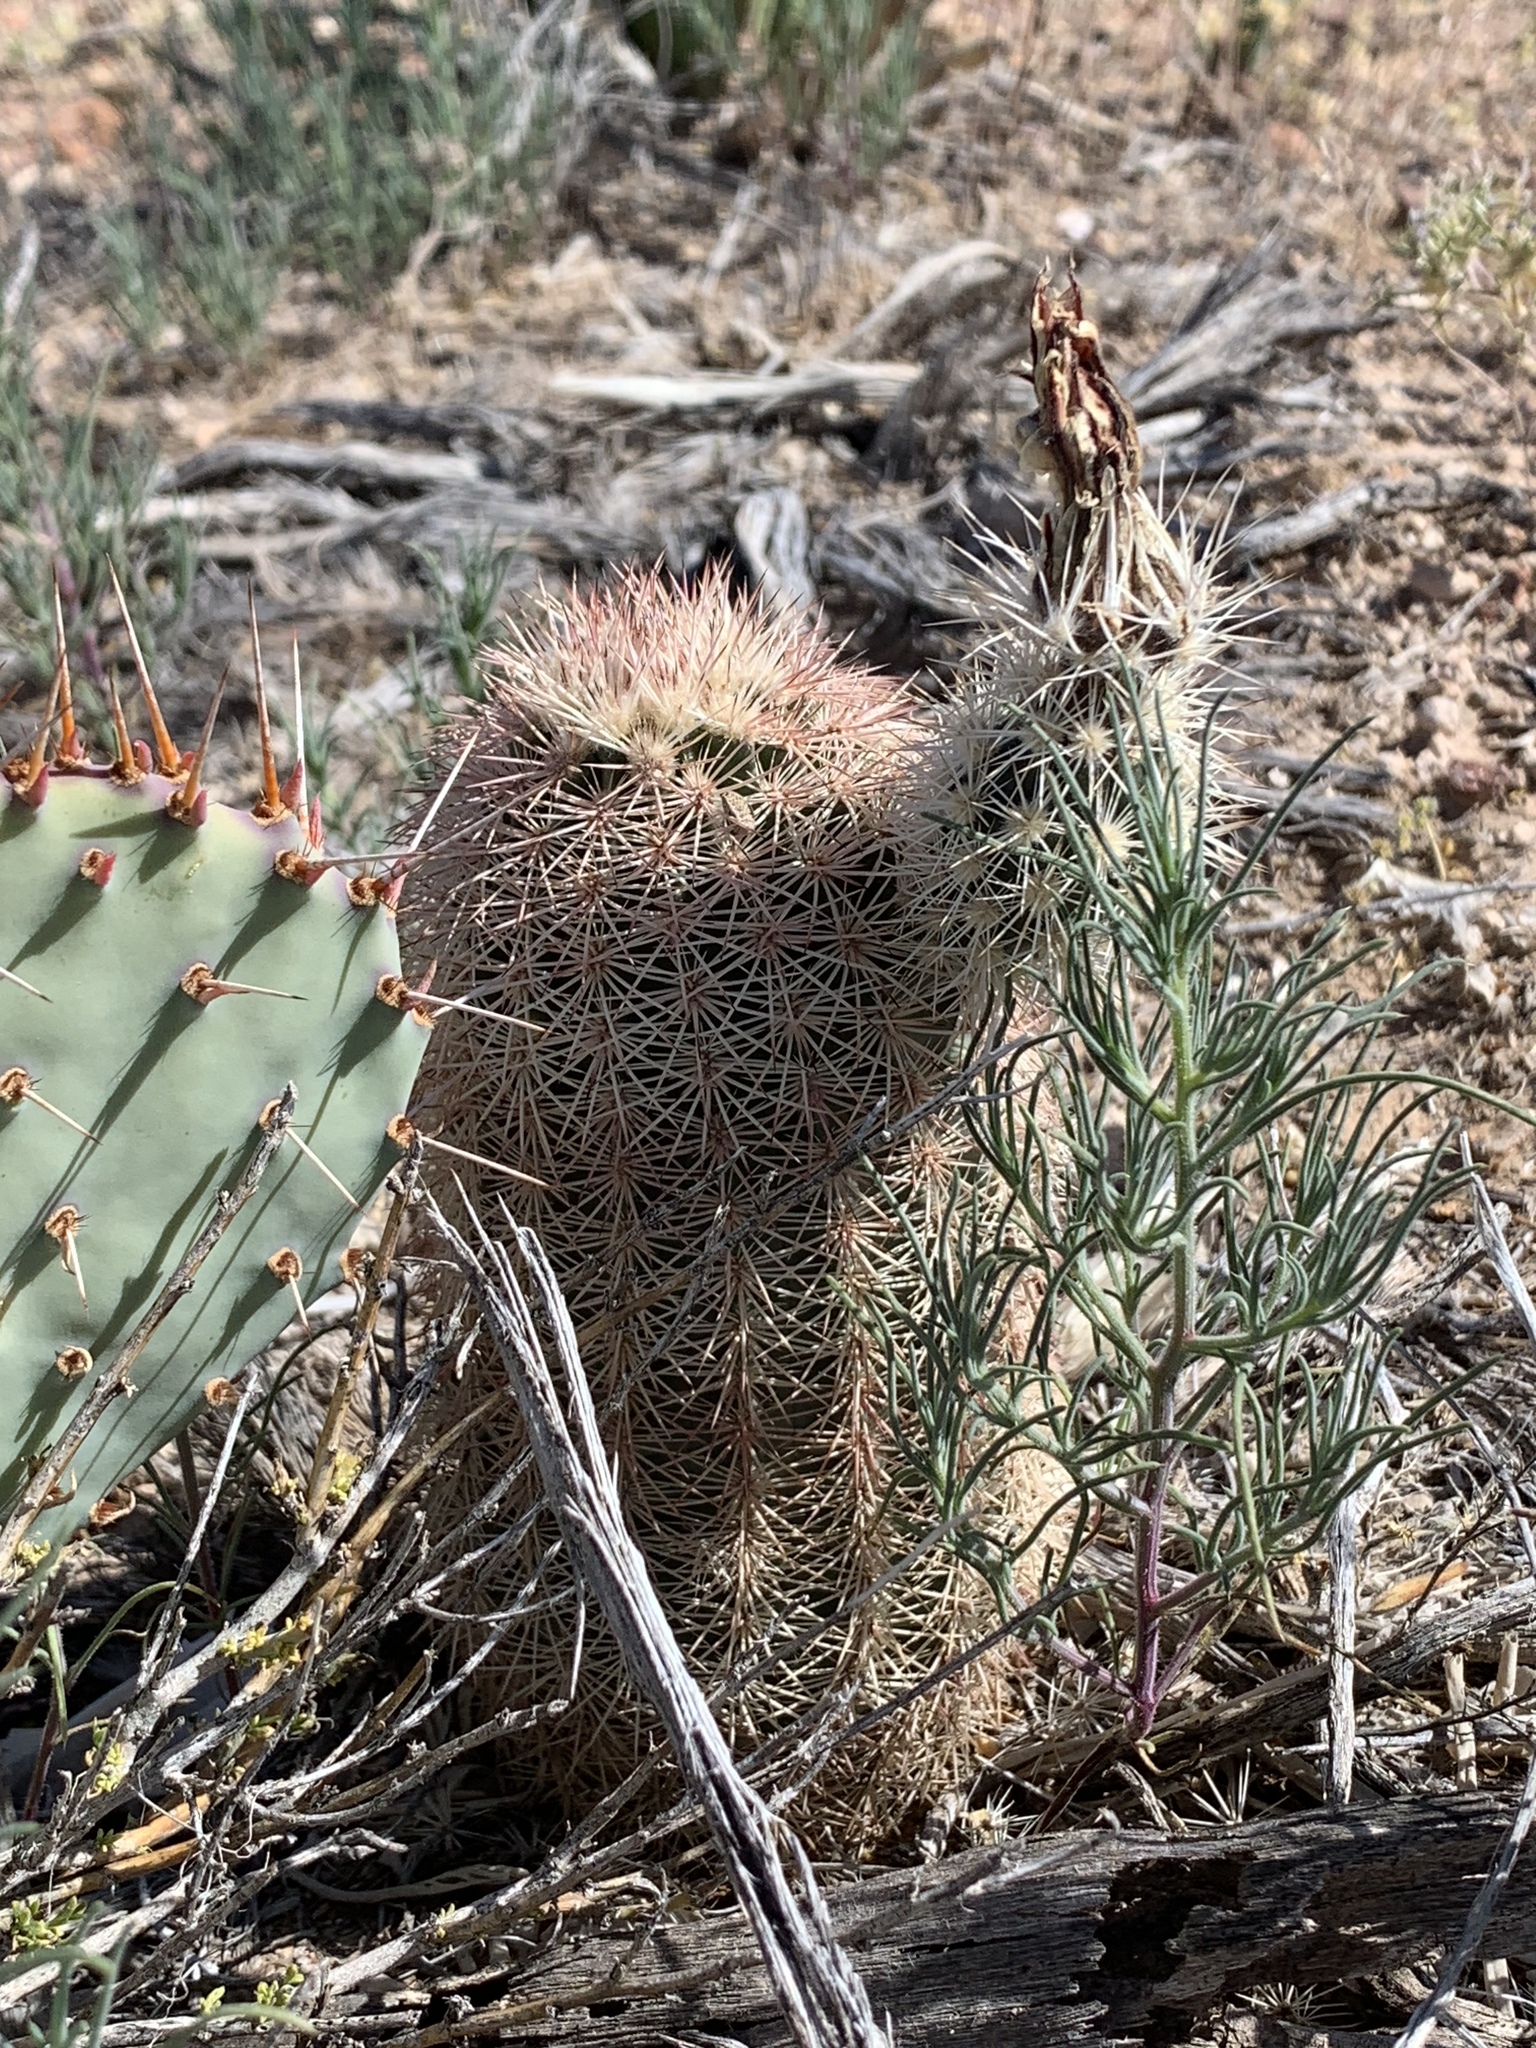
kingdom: Plantae
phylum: Tracheophyta
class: Magnoliopsida
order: Caryophyllales
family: Cactaceae
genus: Echinocereus
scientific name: Echinocereus dasyacanthus
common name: Spiny hedgehog cactus
